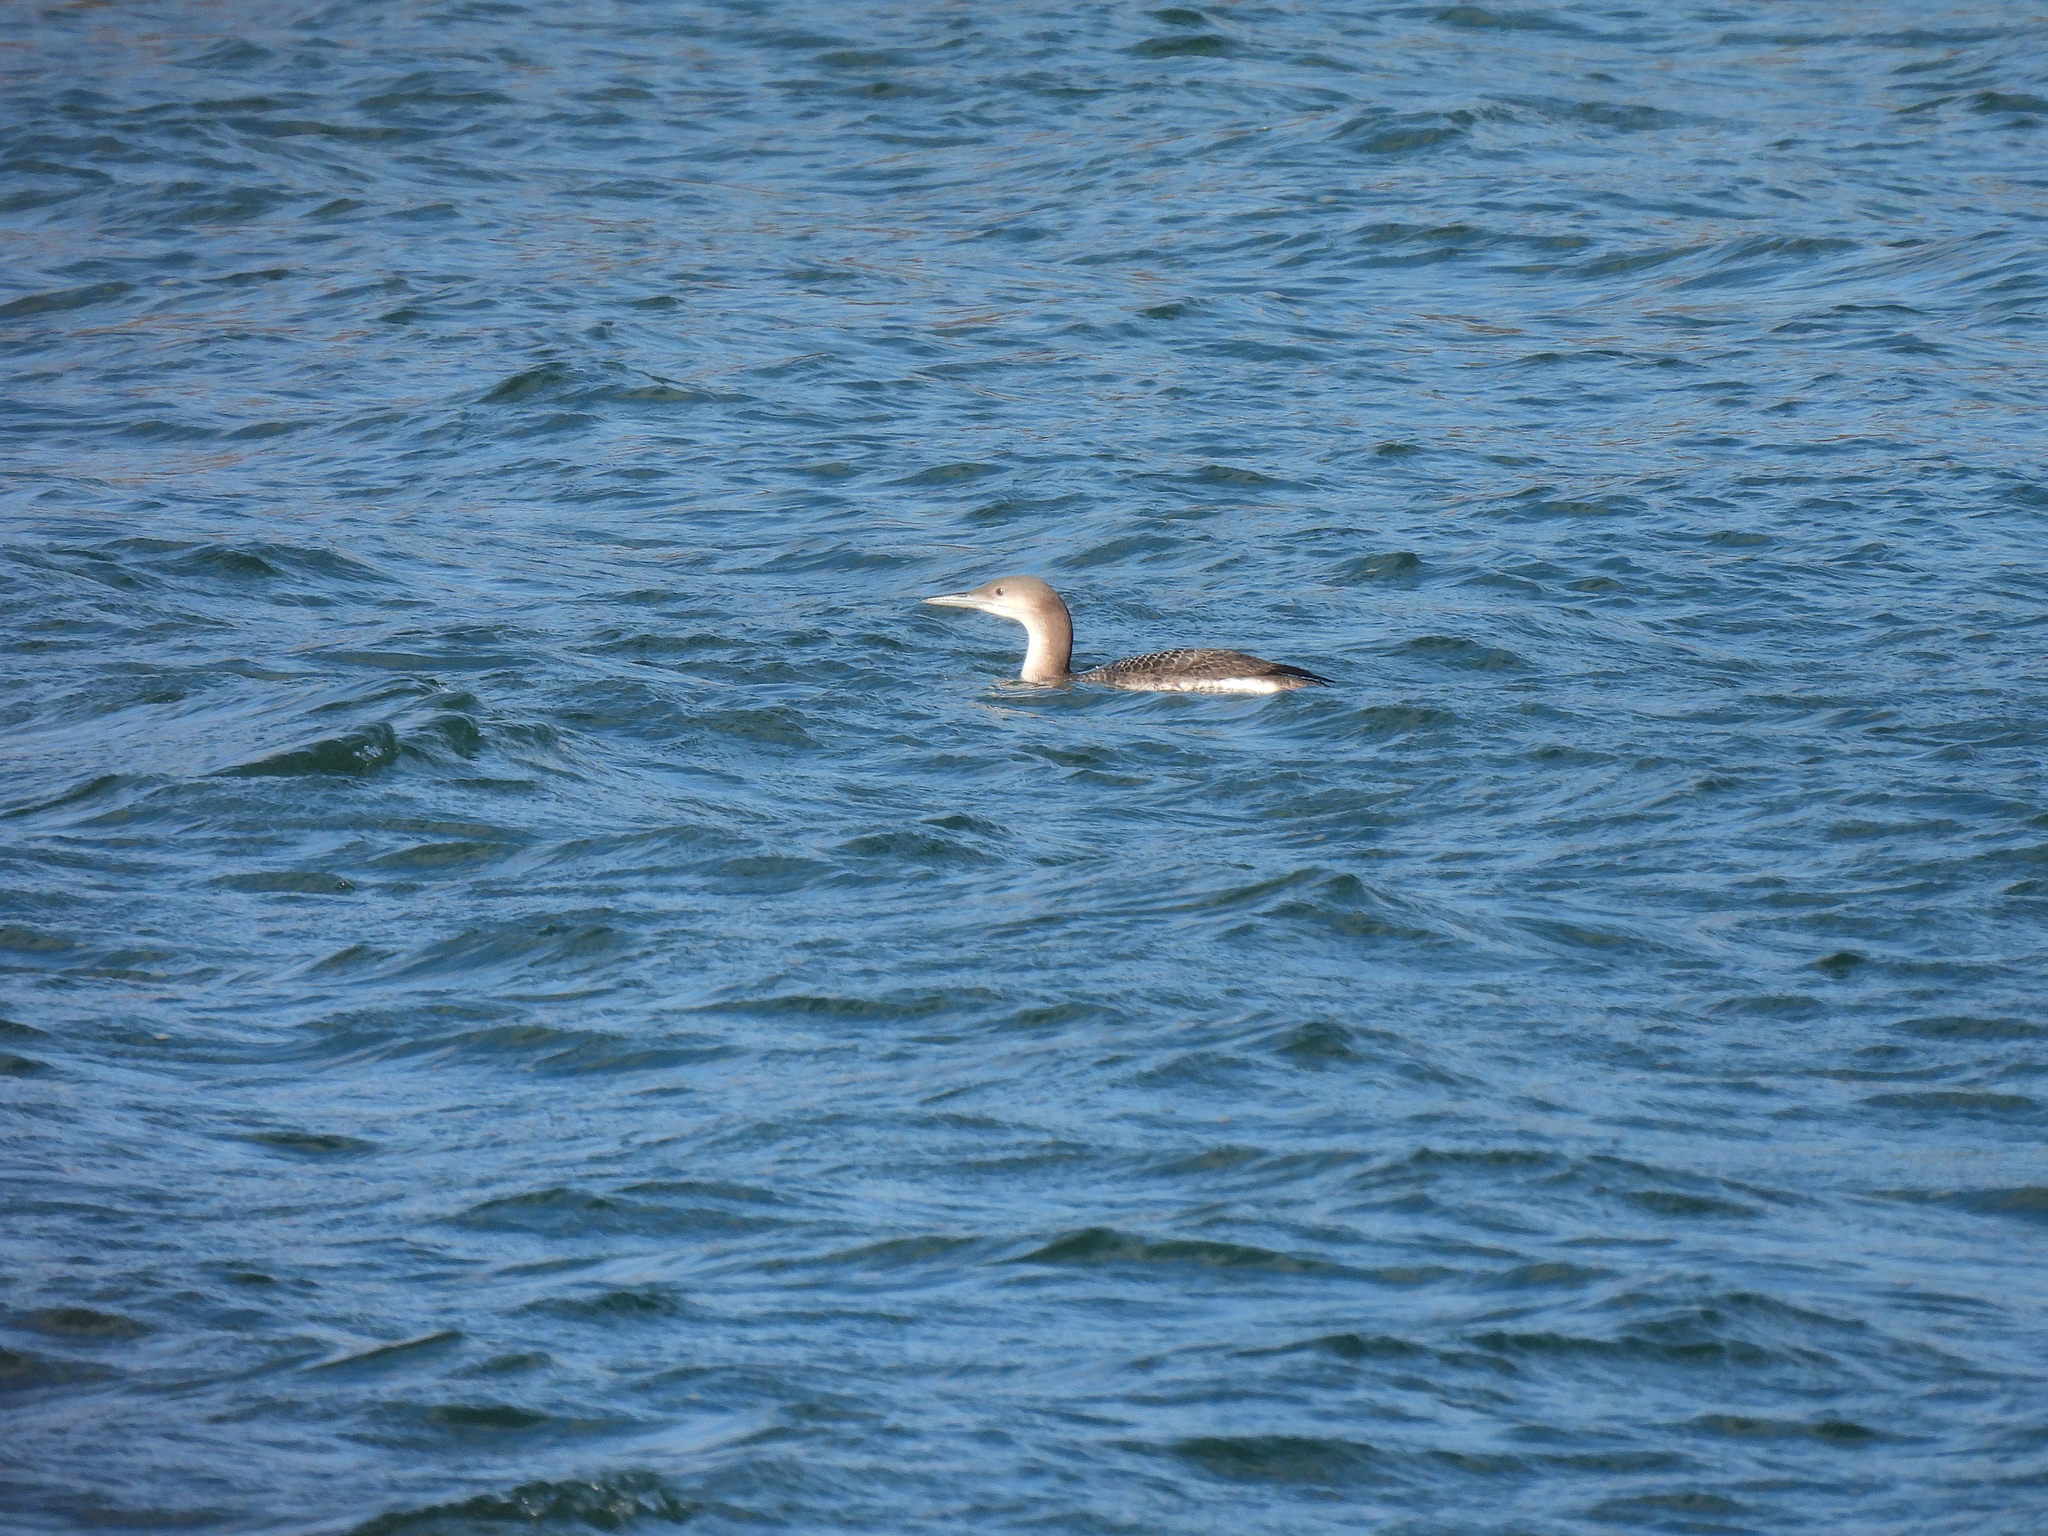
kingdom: Animalia
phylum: Chordata
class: Aves
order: Gaviiformes
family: Gaviidae
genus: Gavia
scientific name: Gavia arctica
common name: Black-throated loon
